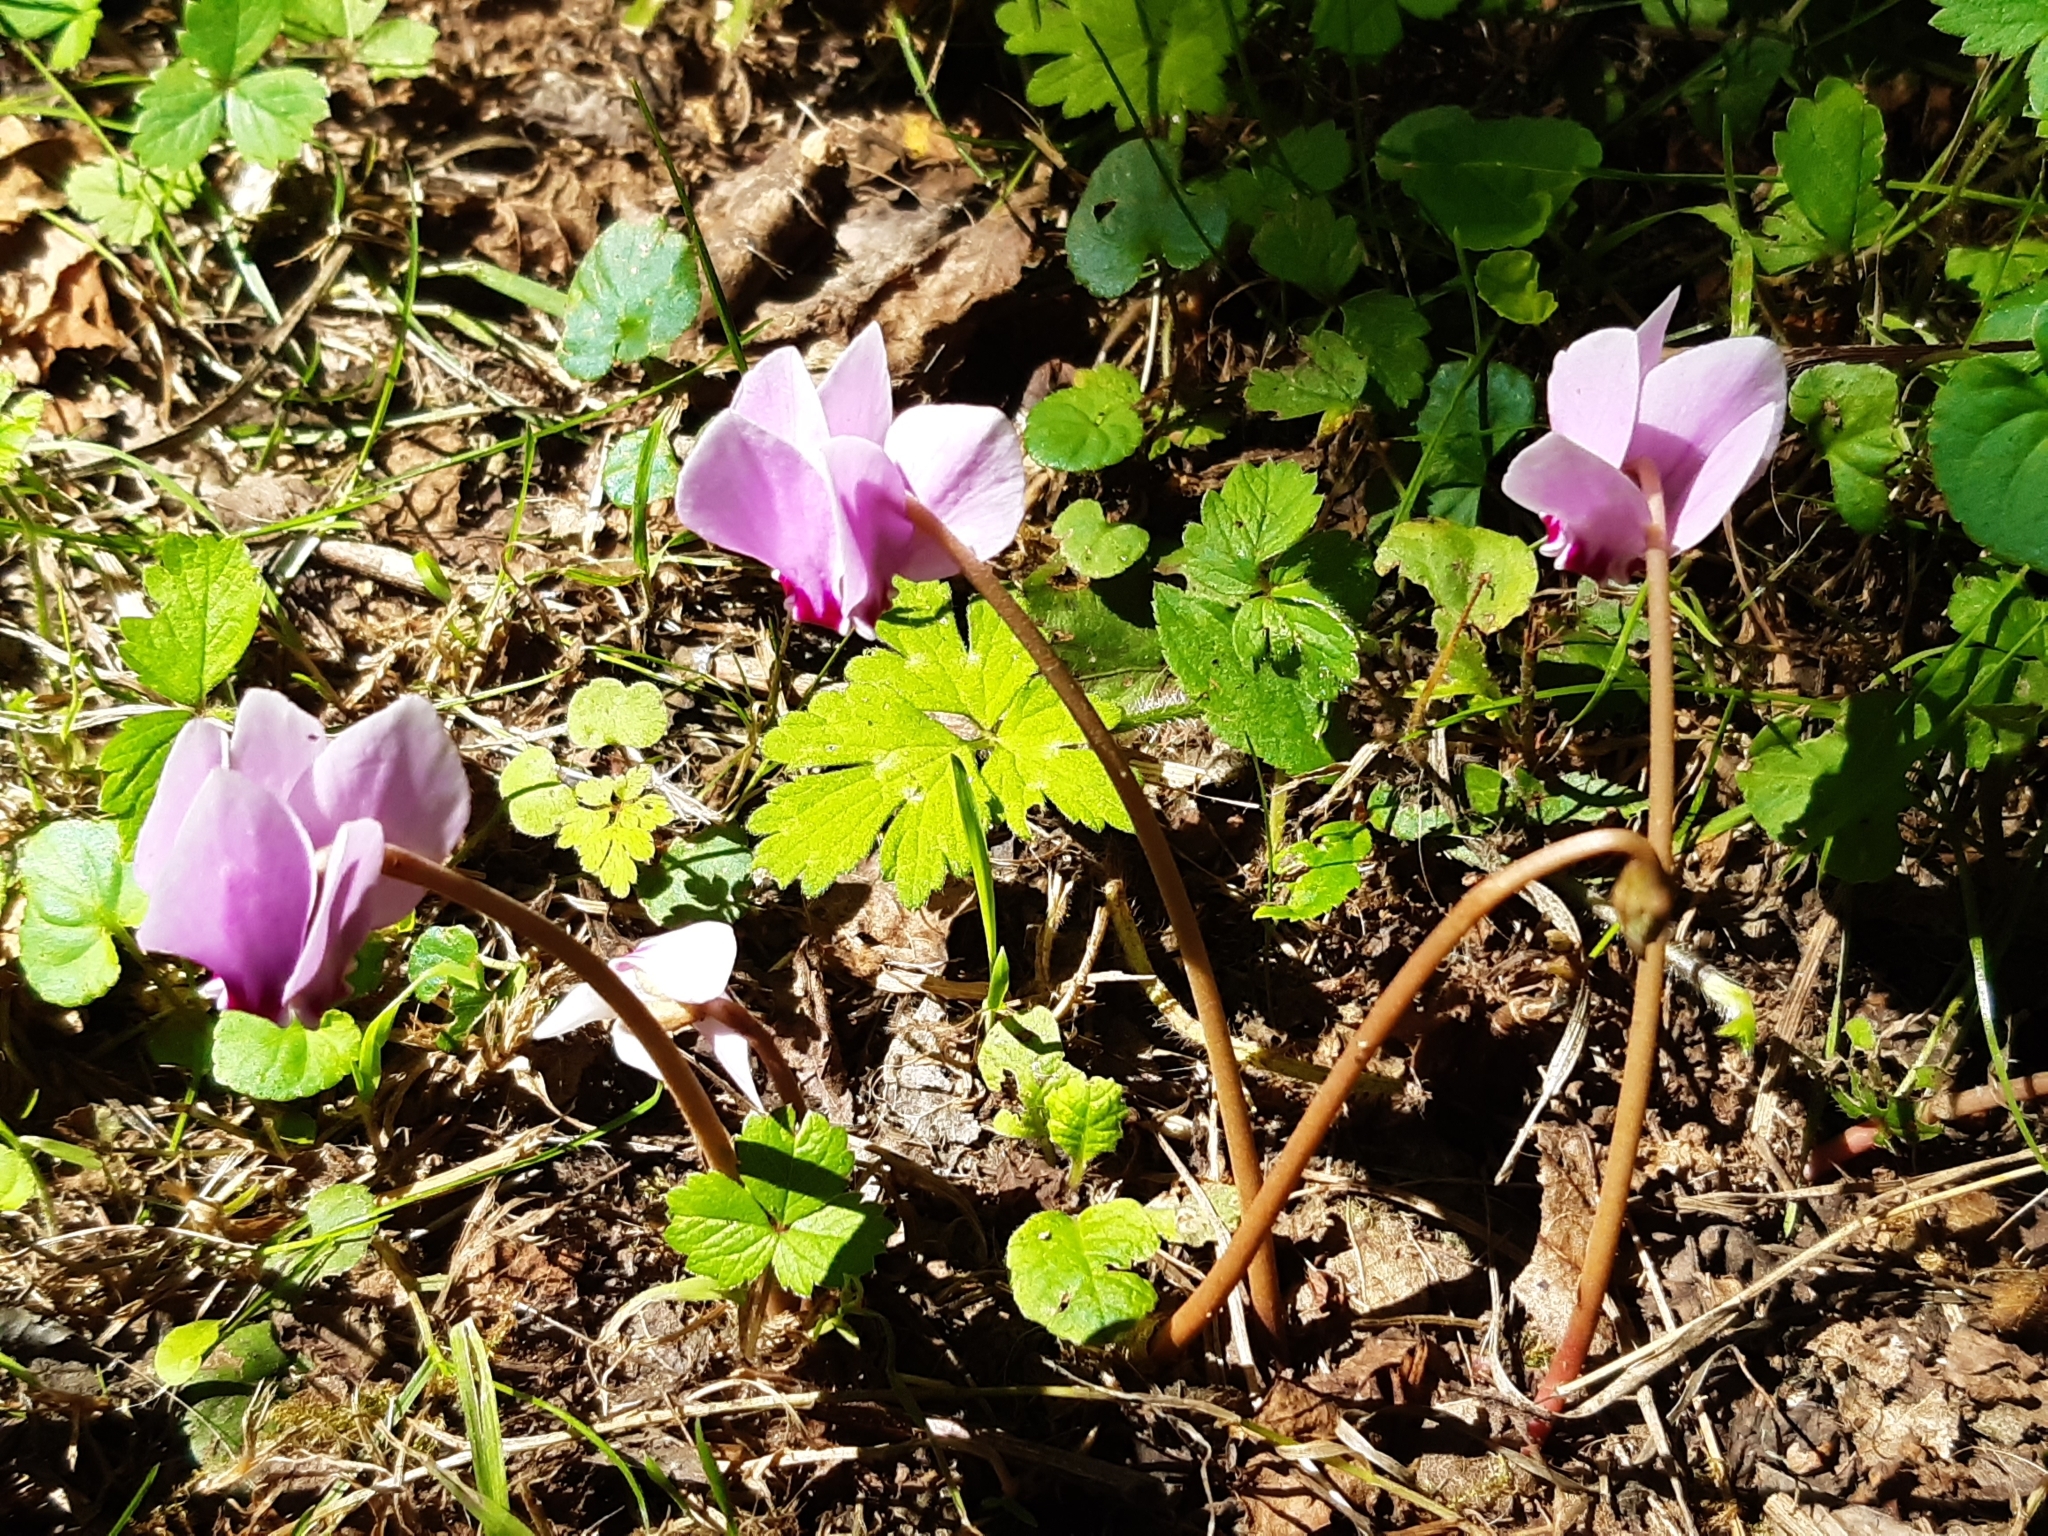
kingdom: Plantae
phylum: Tracheophyta
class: Magnoliopsida
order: Ericales
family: Primulaceae
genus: Cyclamen
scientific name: Cyclamen hederifolium
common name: Sowbread
